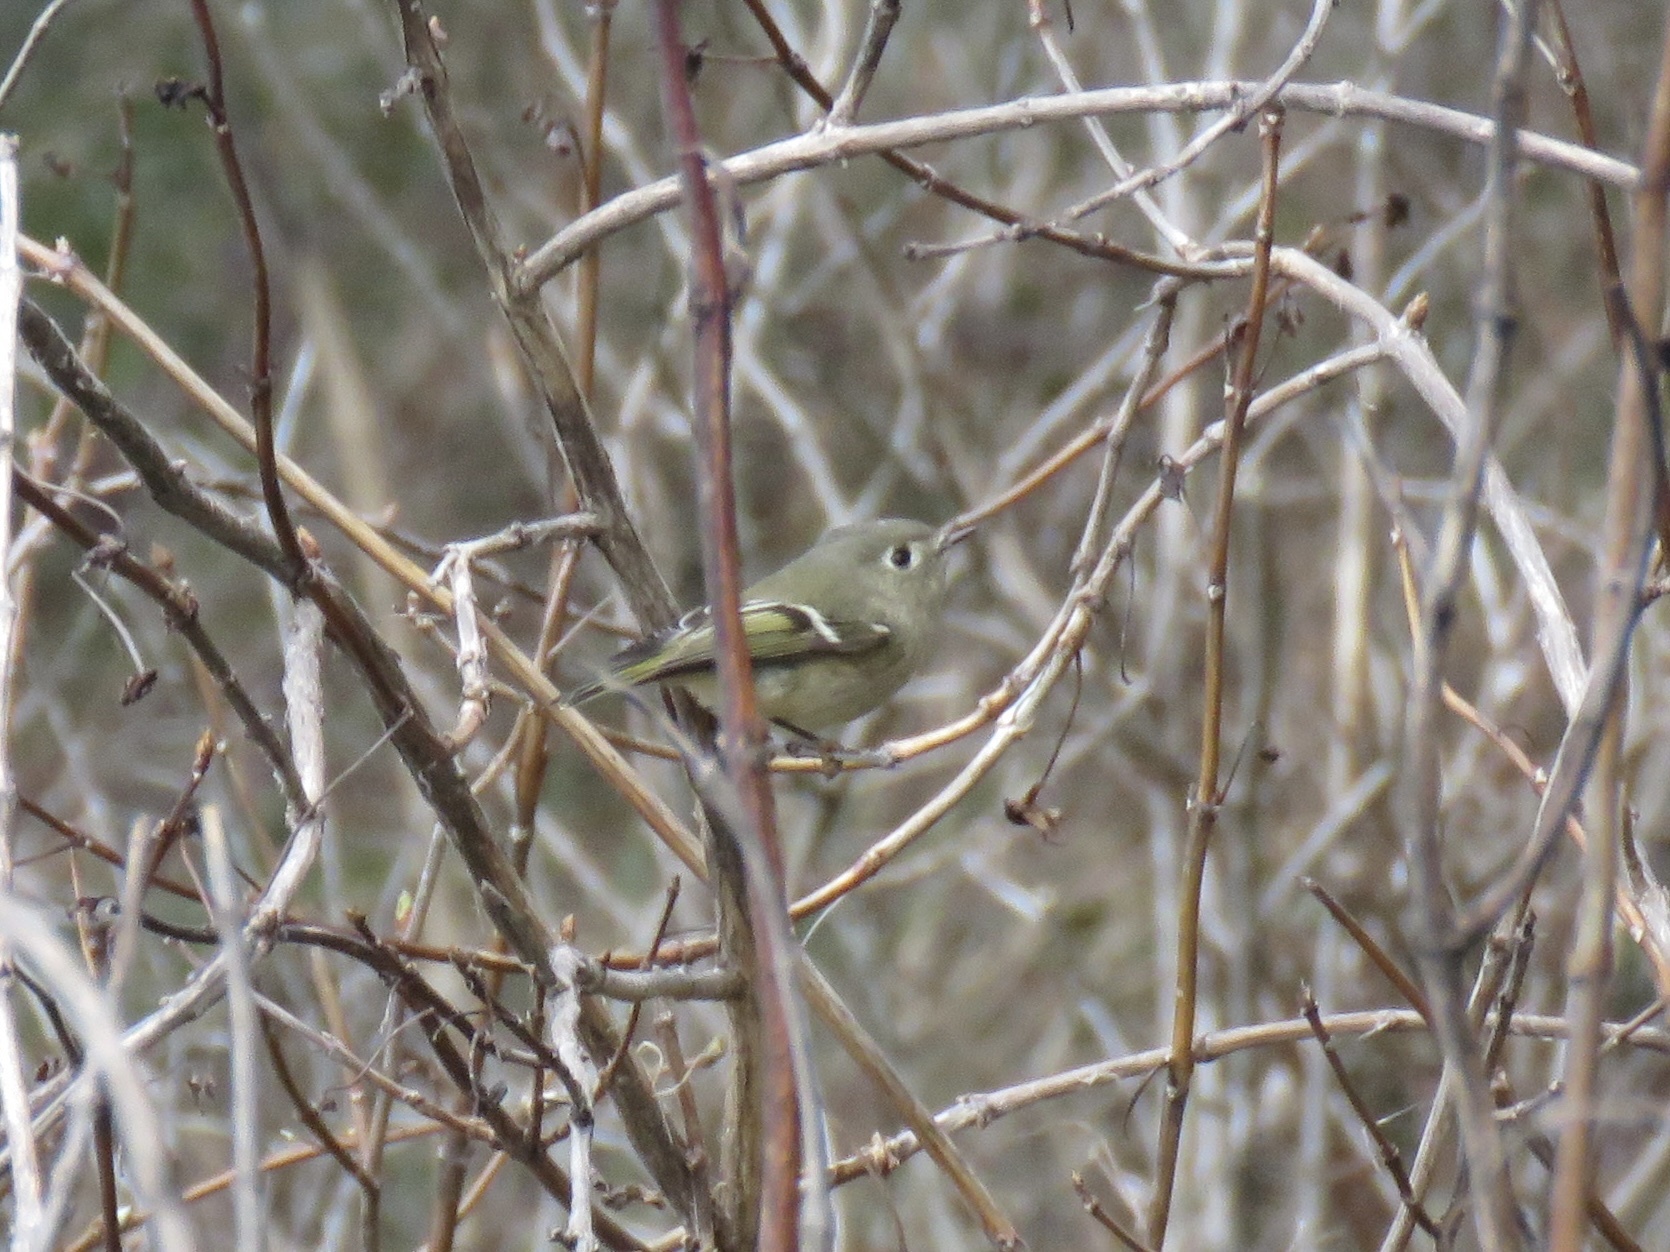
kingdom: Animalia
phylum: Chordata
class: Aves
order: Passeriformes
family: Regulidae
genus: Regulus
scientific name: Regulus calendula
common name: Ruby-crowned kinglet
